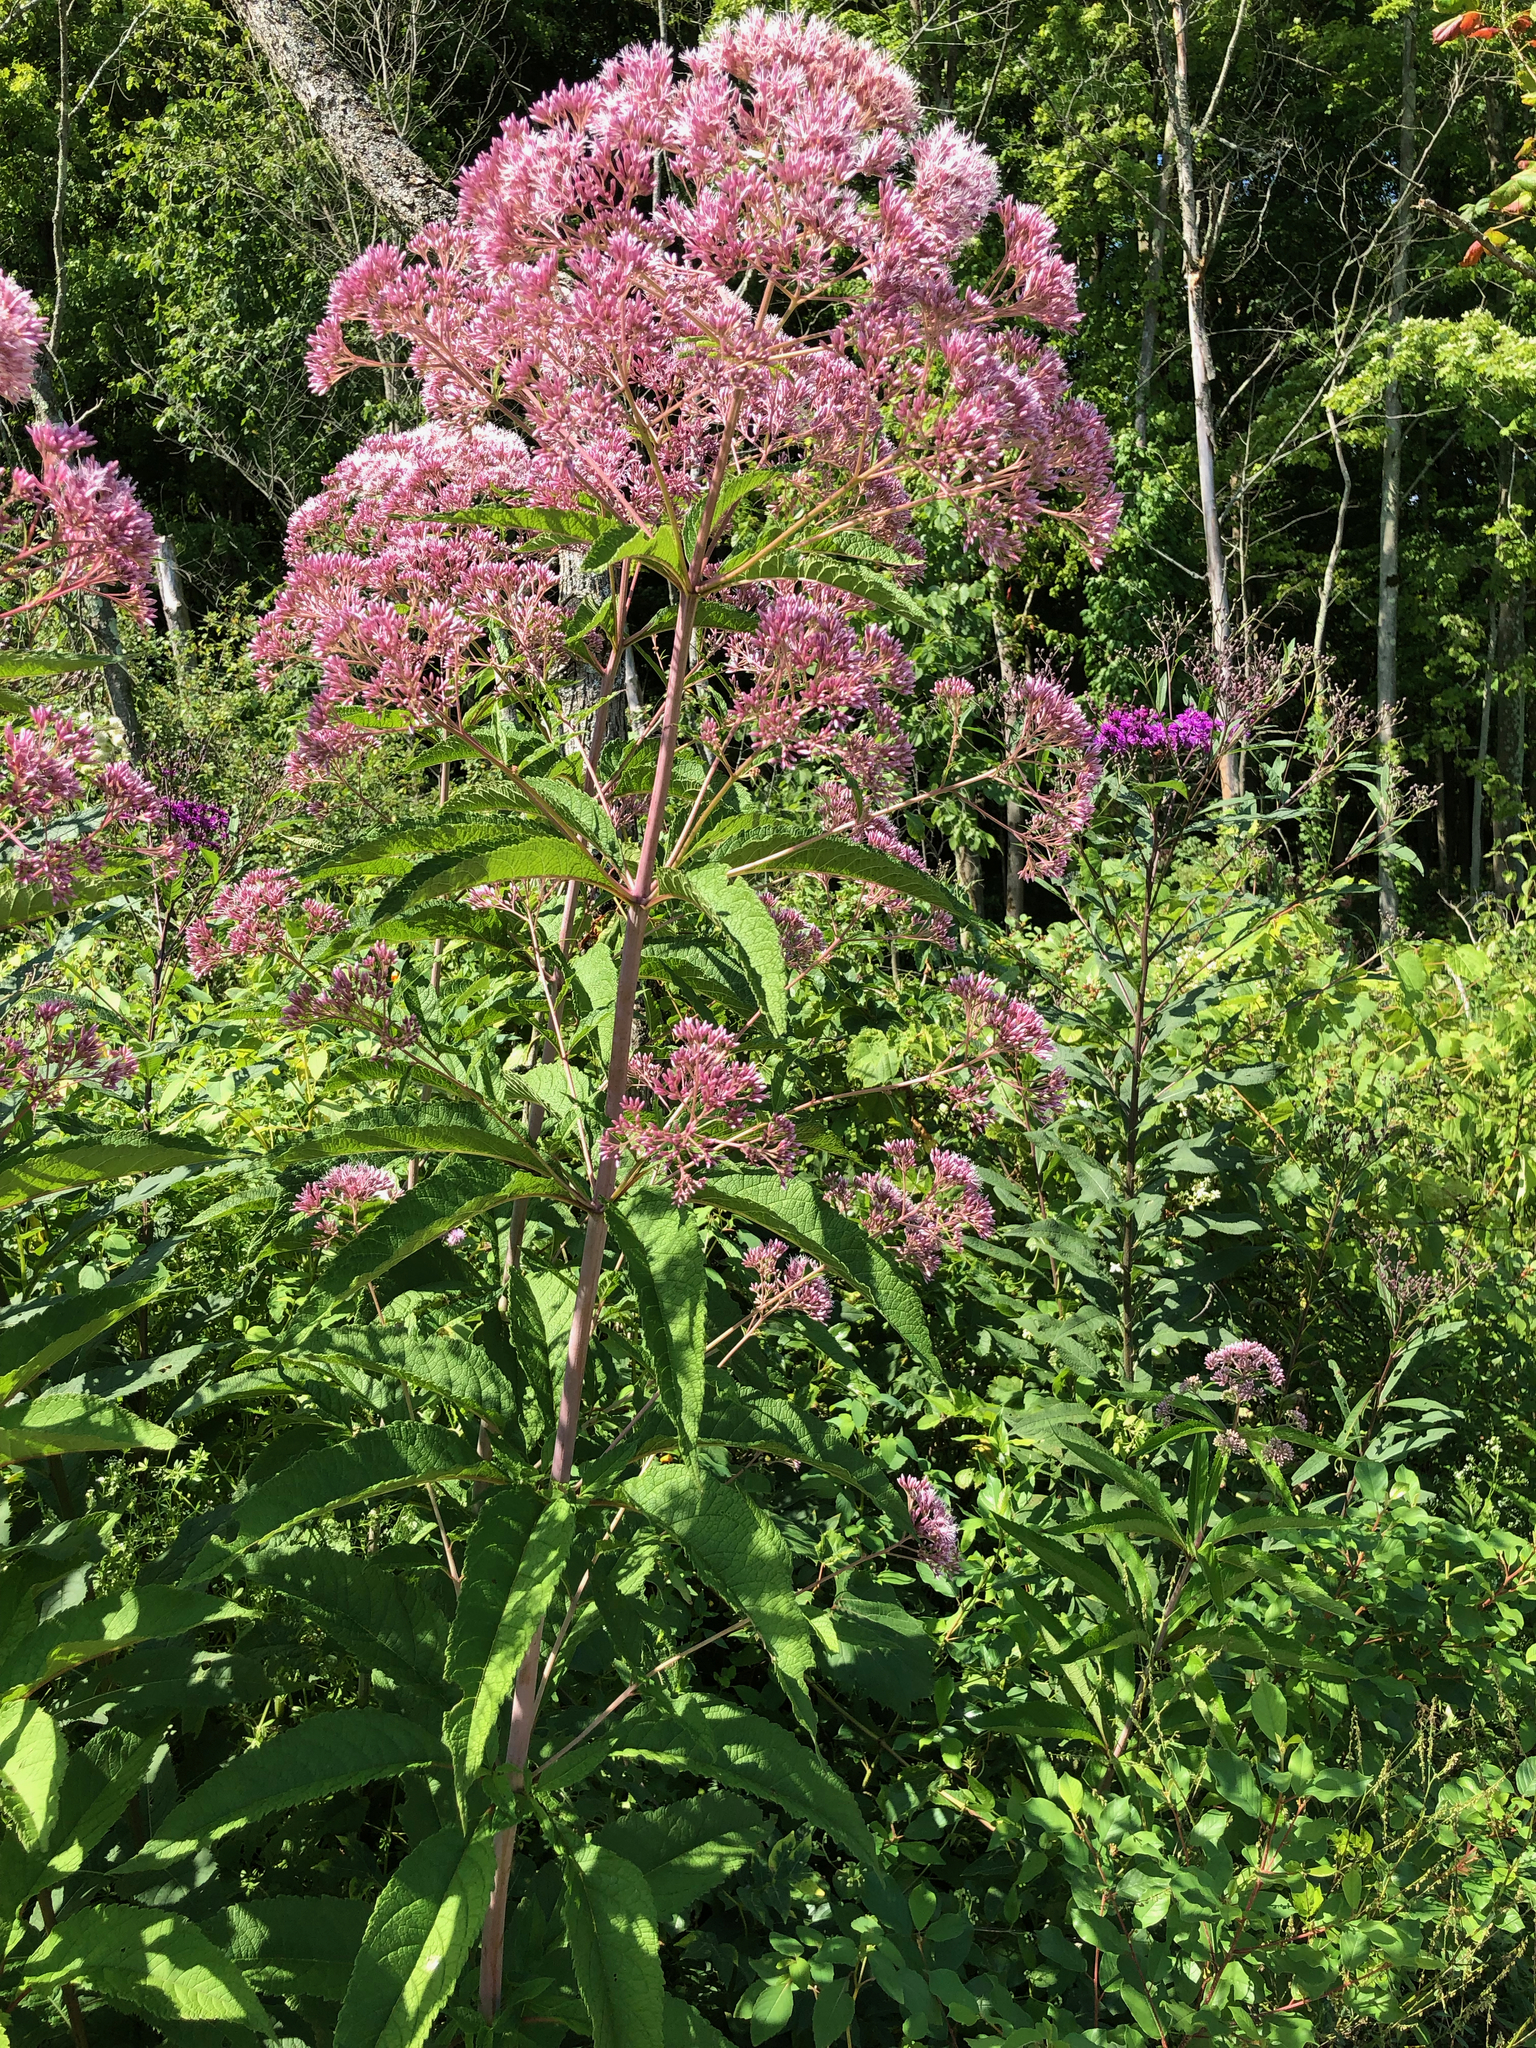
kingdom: Plantae
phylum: Tracheophyta
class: Magnoliopsida
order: Asterales
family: Asteraceae
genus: Eutrochium
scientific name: Eutrochium fistulosum
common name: Trumpetweed
